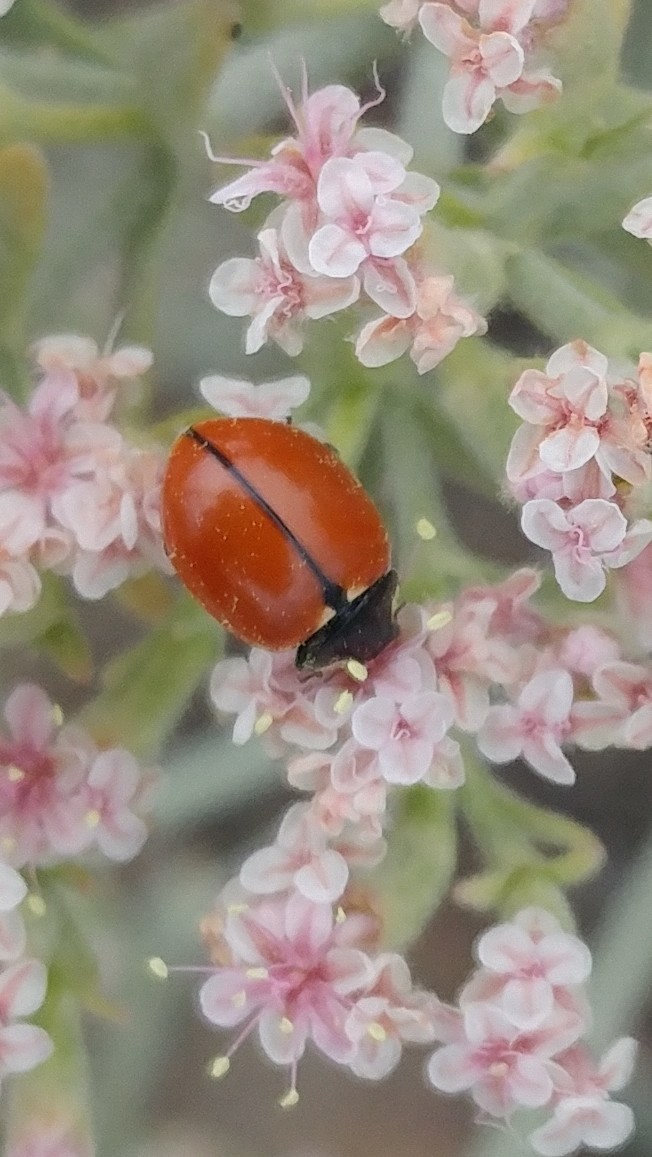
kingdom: Animalia
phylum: Arthropoda
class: Insecta
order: Coleoptera
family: Coccinellidae
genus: Coccinella
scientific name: Coccinella californica
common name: Lady beetle
